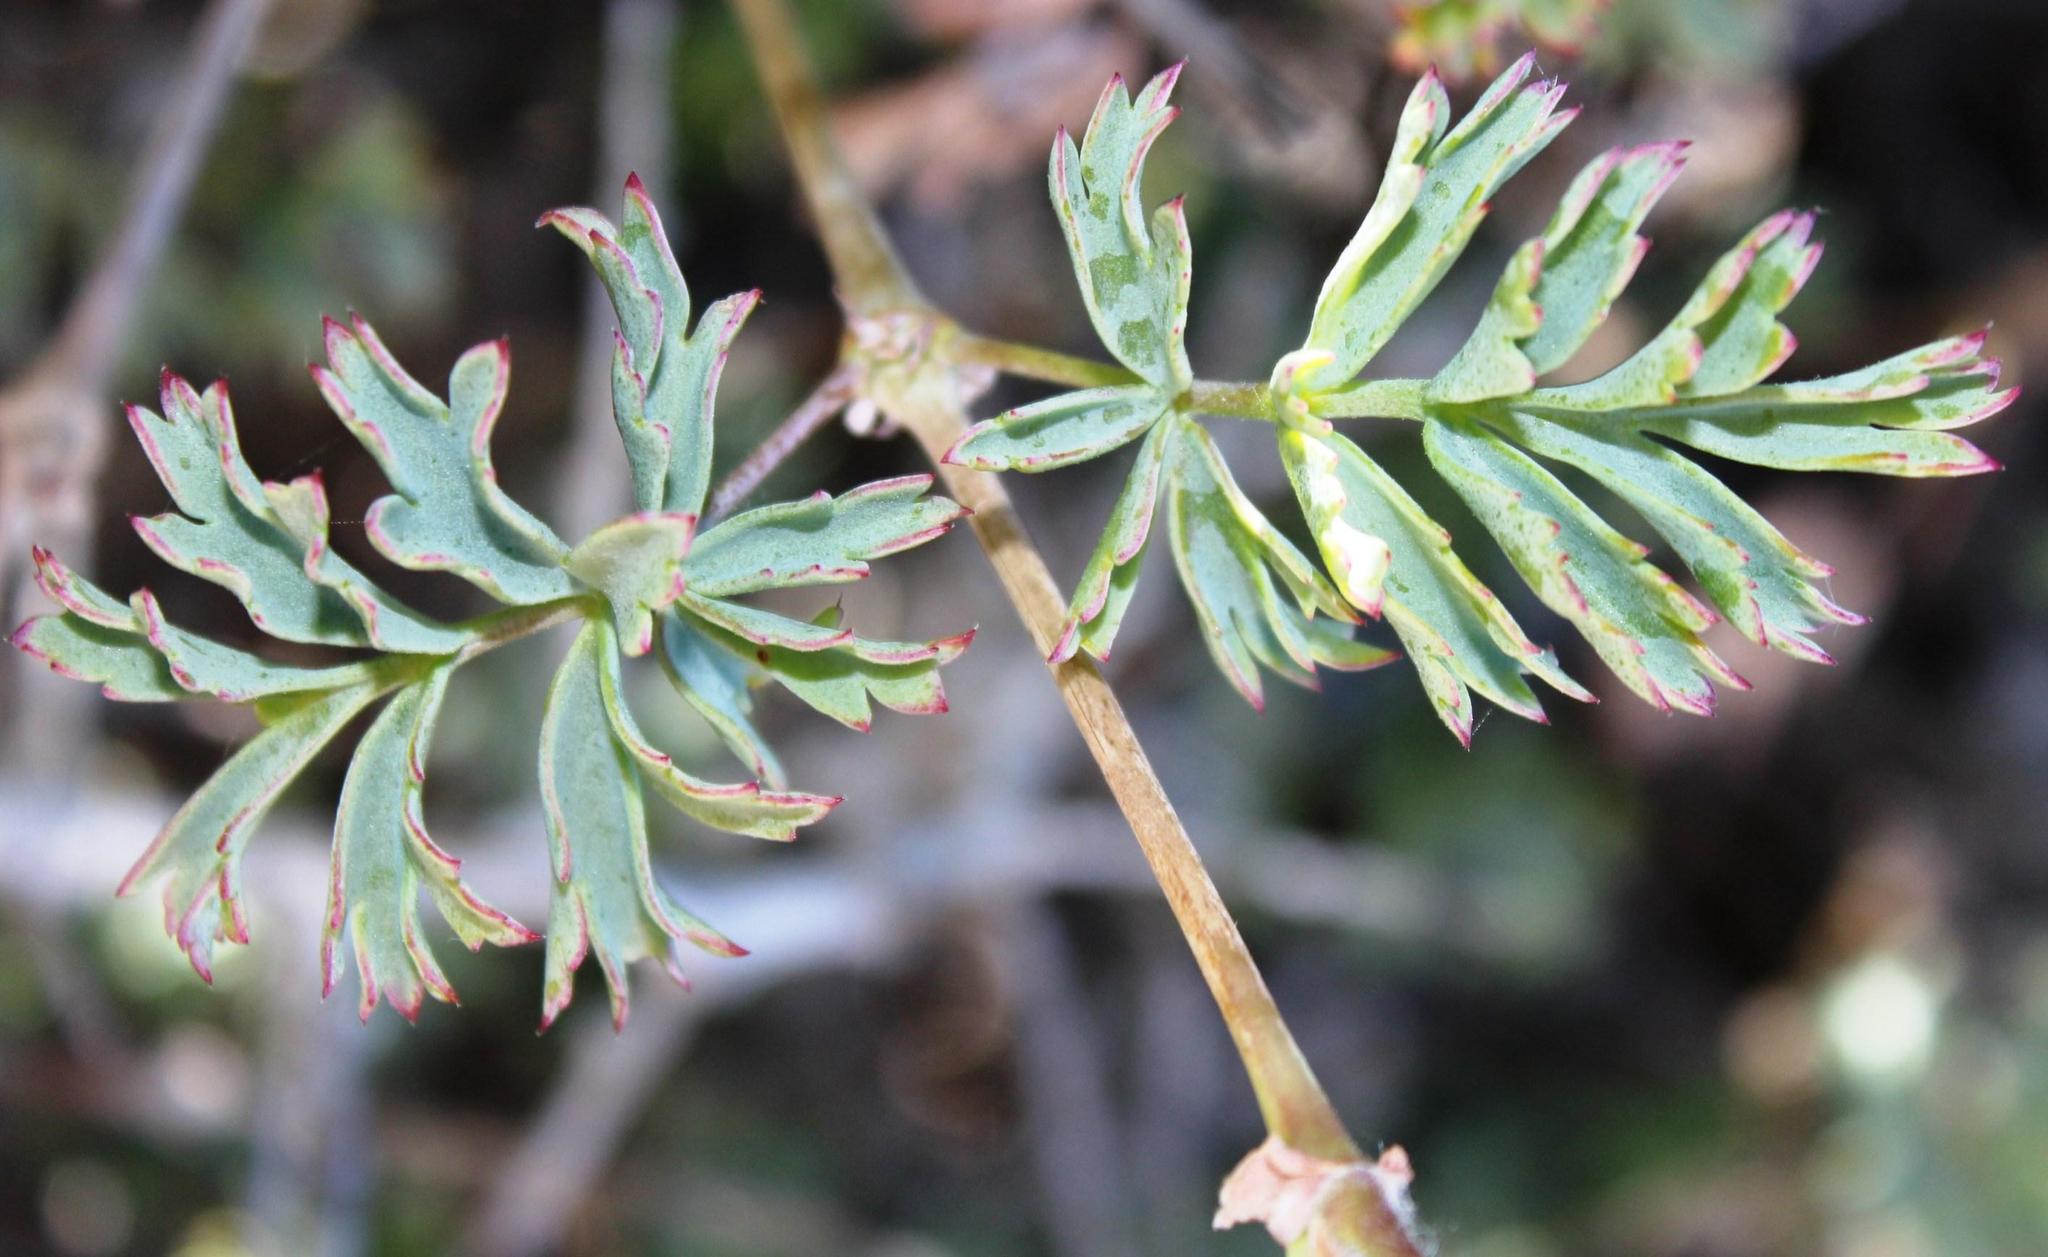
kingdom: Plantae
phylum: Tracheophyta
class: Magnoliopsida
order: Geraniales
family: Geraniaceae
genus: Pelargonium
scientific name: Pelargonium gibbosum
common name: Gouty geranium
